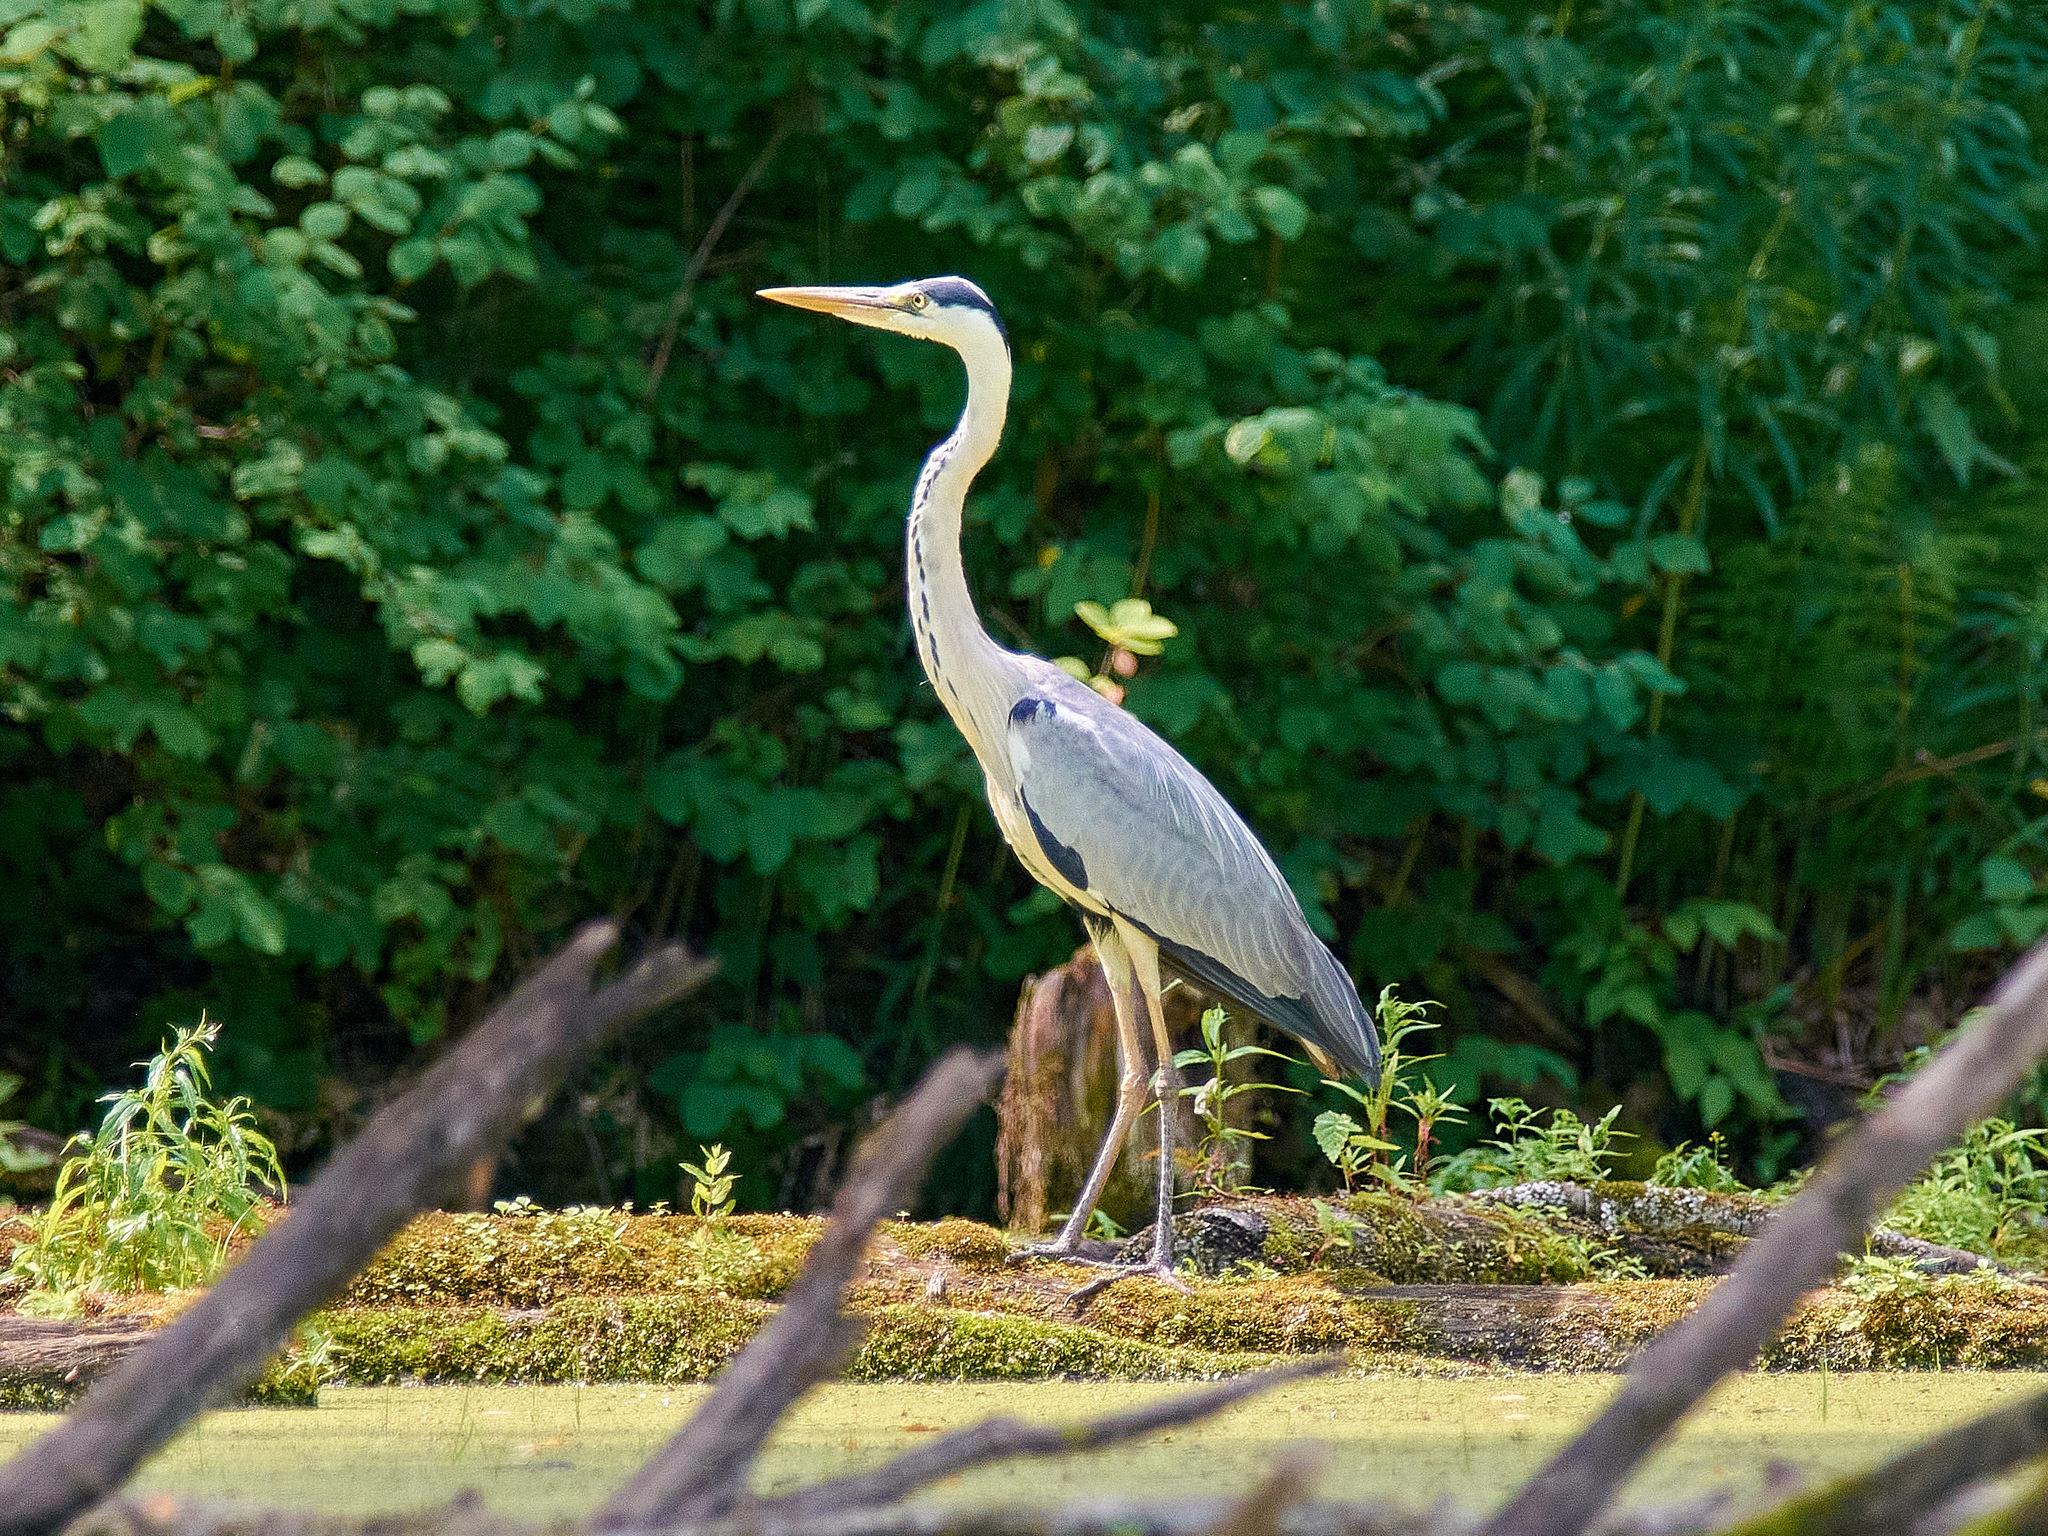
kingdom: Animalia
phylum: Chordata
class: Aves
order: Pelecaniformes
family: Ardeidae
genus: Ardea
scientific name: Ardea cinerea
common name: Grey heron
